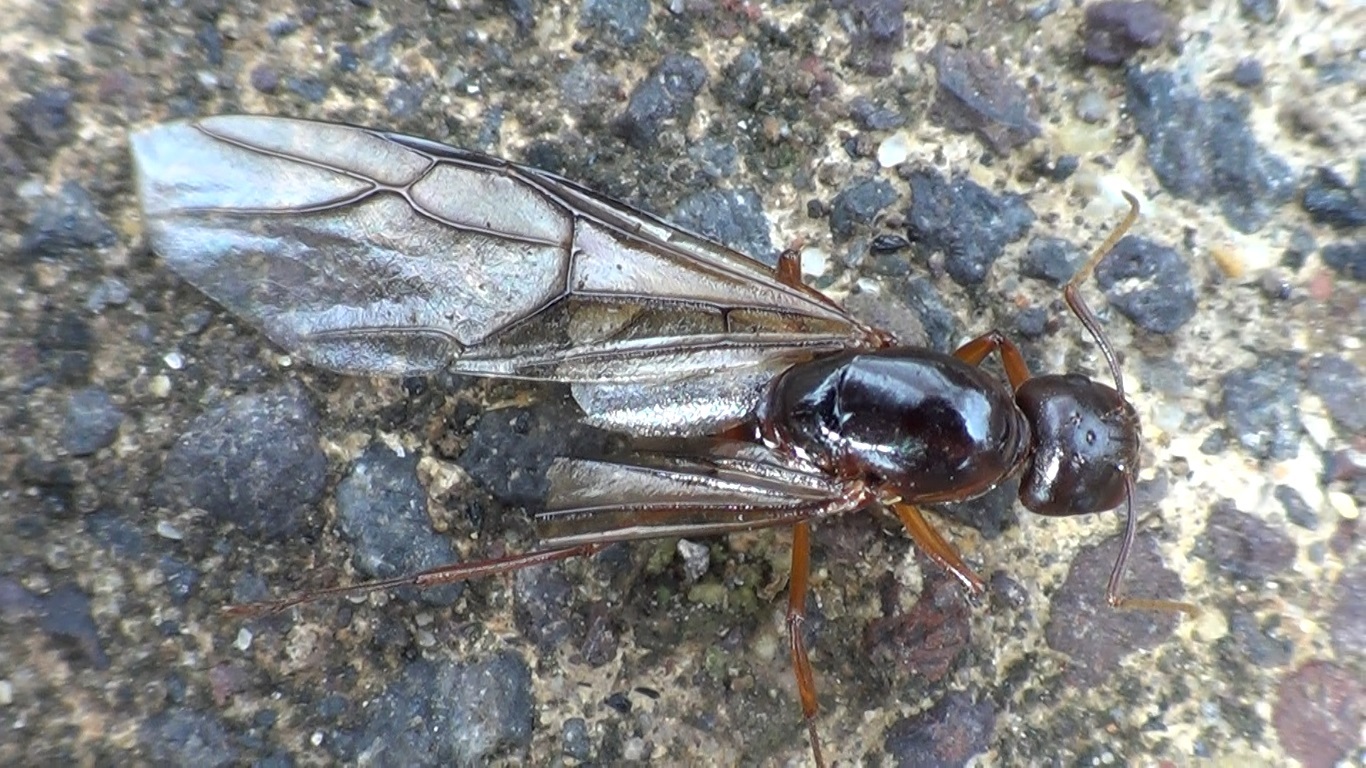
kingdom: Animalia
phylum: Arthropoda
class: Insecta
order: Hymenoptera
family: Formicidae
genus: Camponotus
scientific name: Camponotus nylanderi
